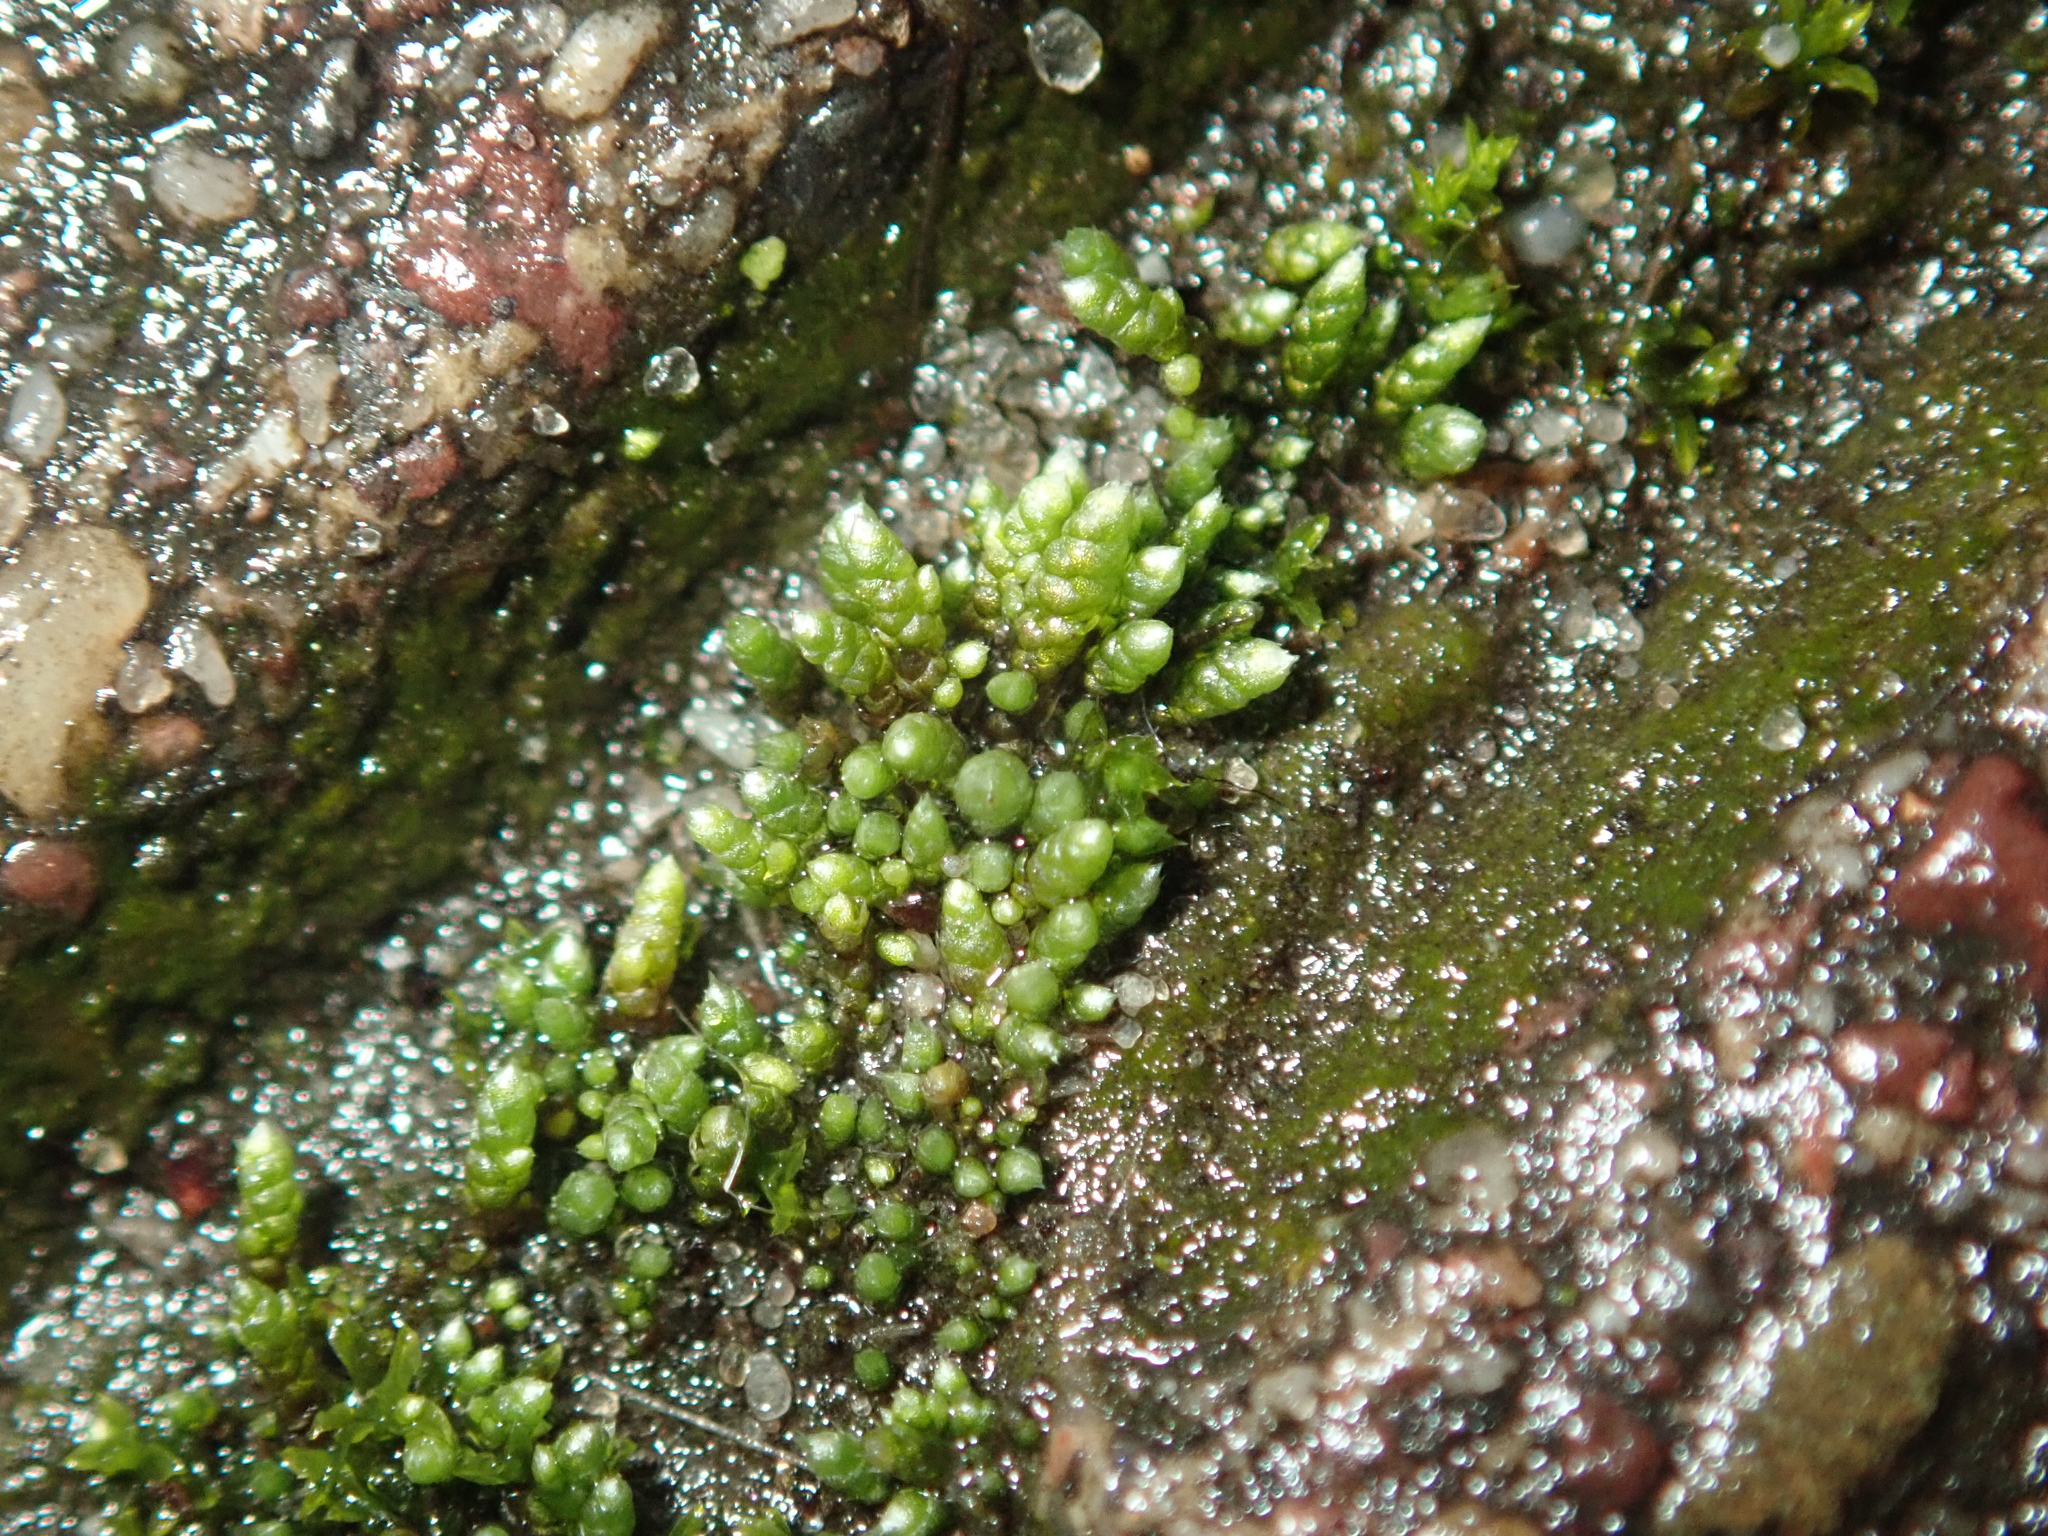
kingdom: Plantae
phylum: Bryophyta
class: Bryopsida
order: Bryales
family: Bryaceae
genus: Bryum
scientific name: Bryum argenteum
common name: Silver-moss
